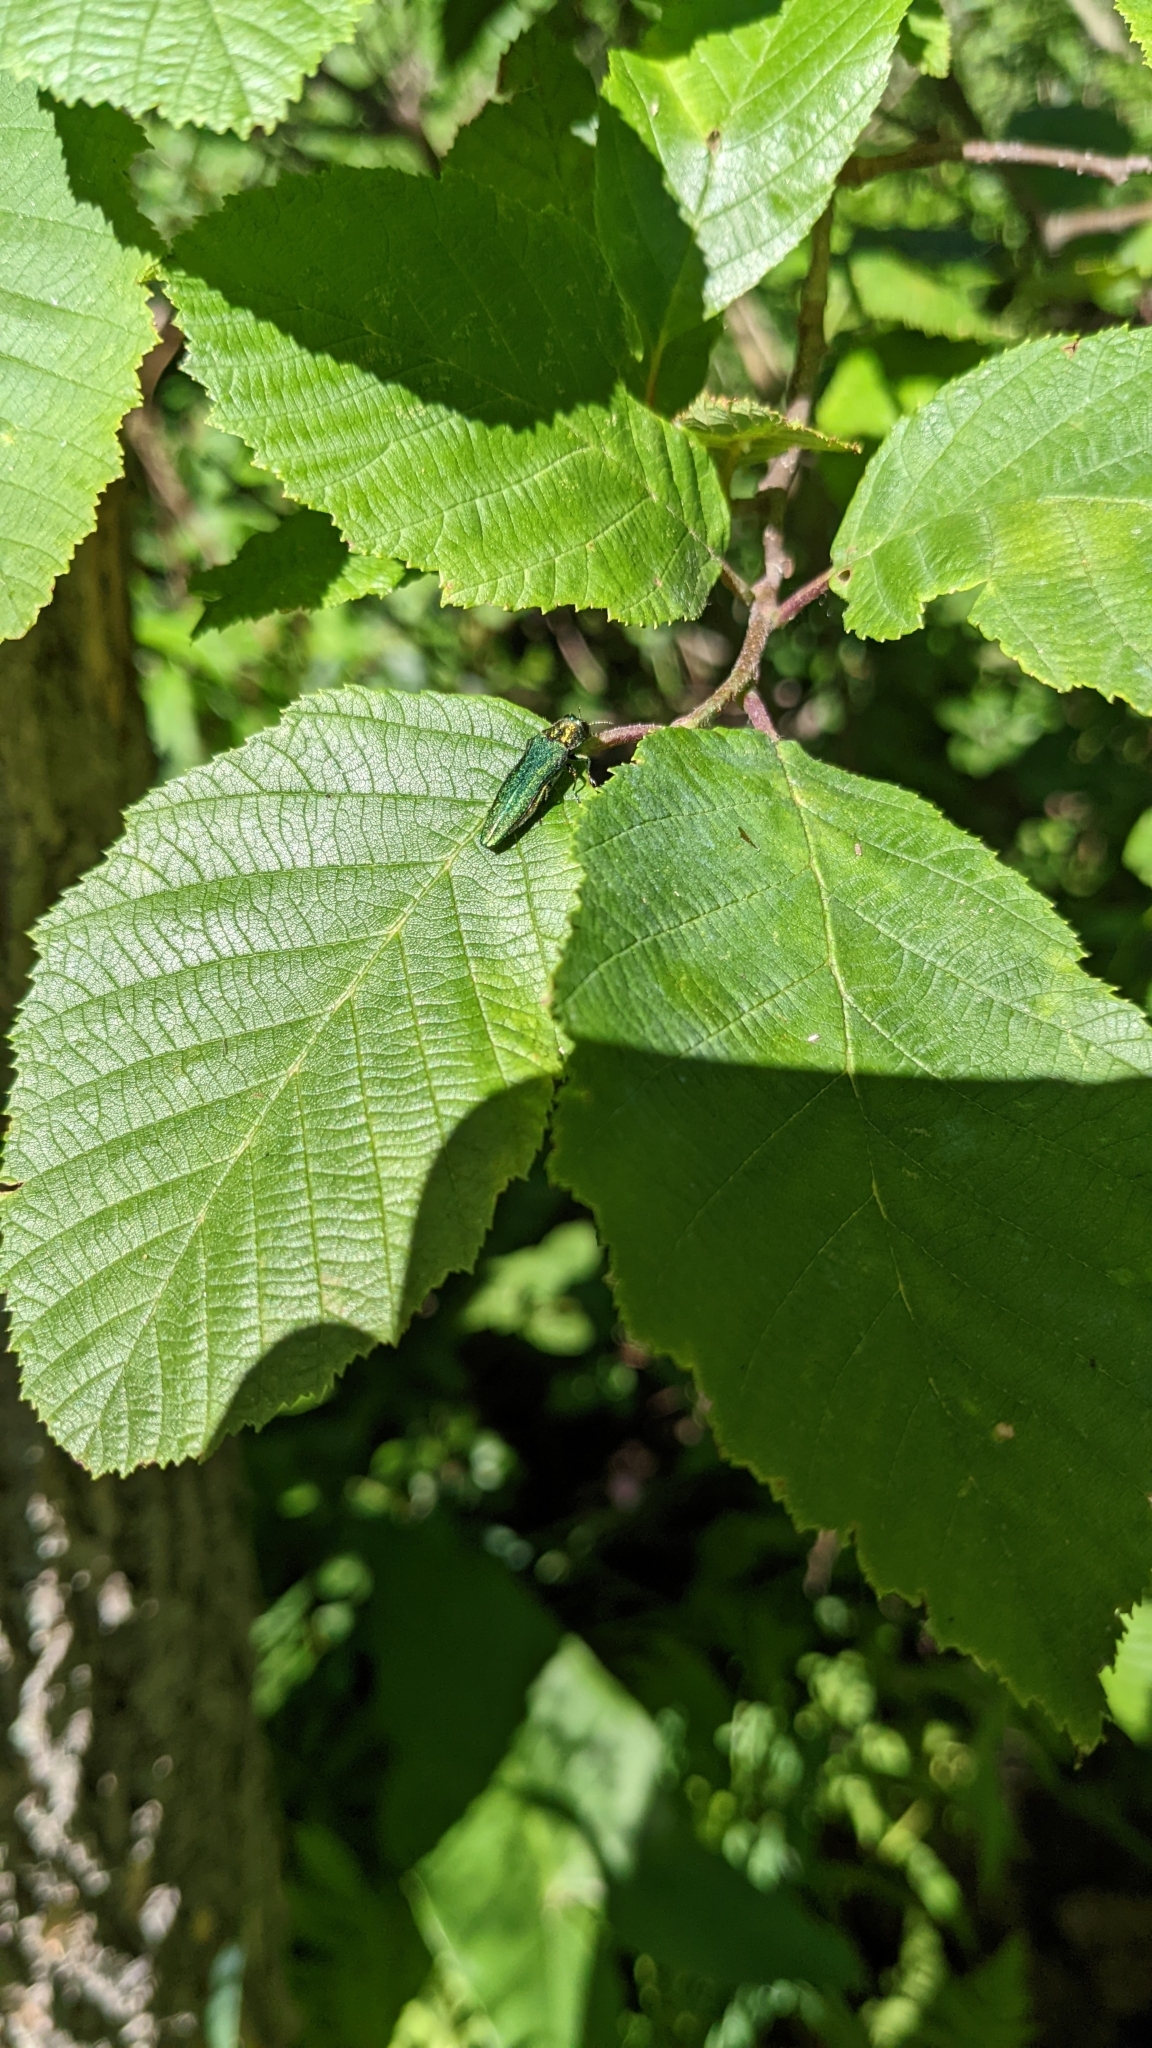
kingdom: Animalia
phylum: Arthropoda
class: Insecta
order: Coleoptera
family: Buprestidae
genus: Agrilus
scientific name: Agrilus planipennis
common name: Emerald ash borer
